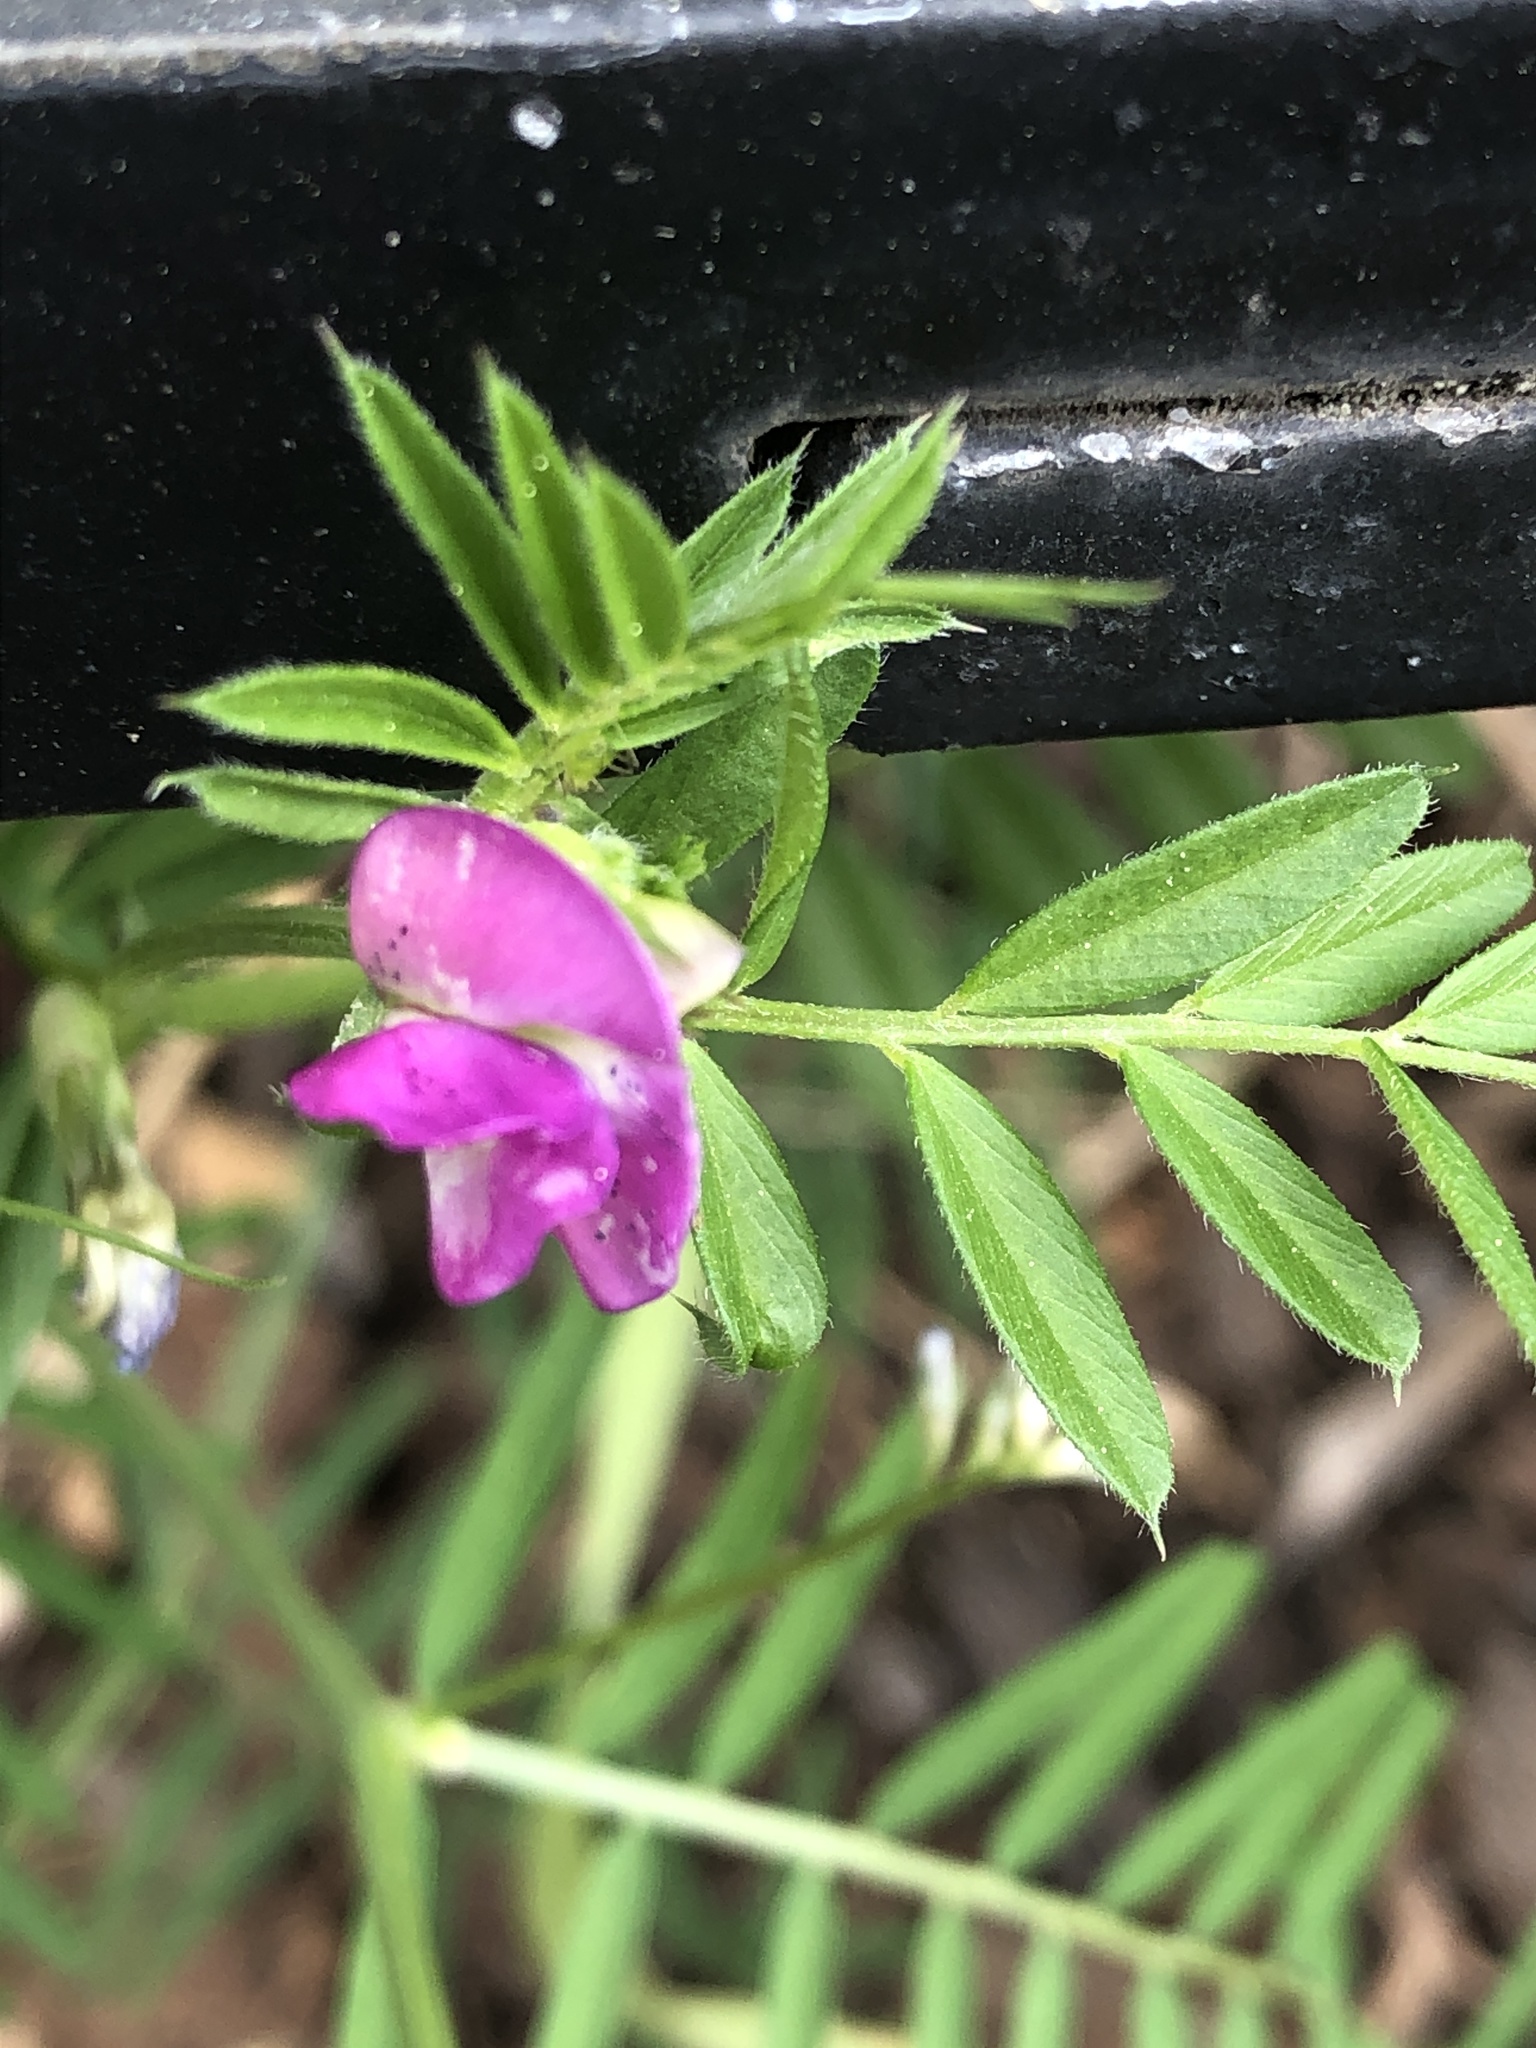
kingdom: Plantae
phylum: Tracheophyta
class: Magnoliopsida
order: Fabales
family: Fabaceae
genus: Vicia
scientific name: Vicia sativa
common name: Garden vetch
